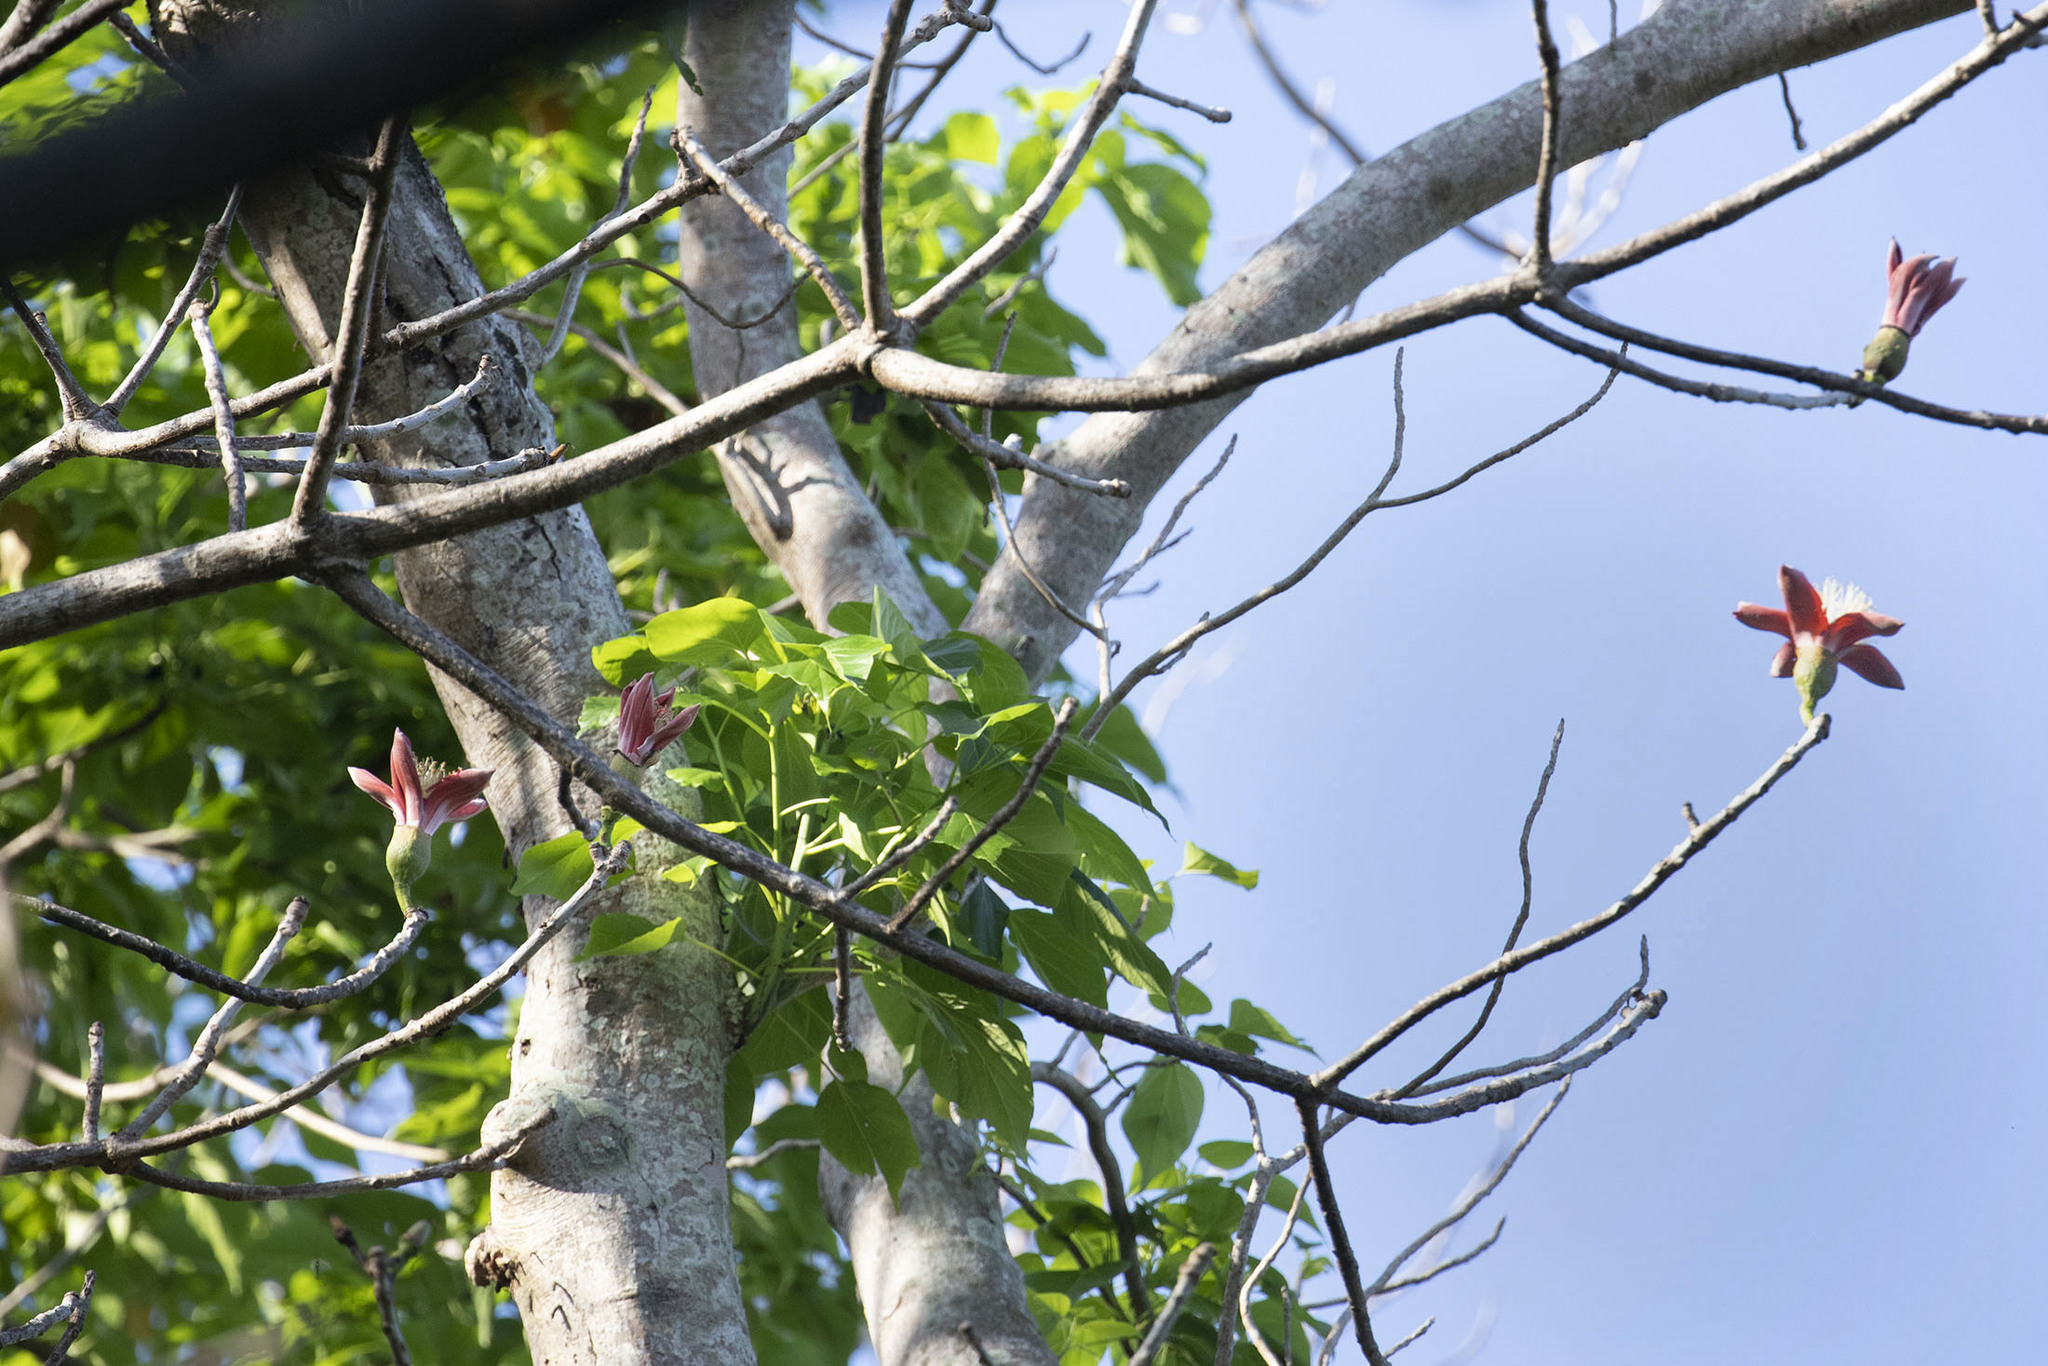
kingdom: Plantae
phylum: Tracheophyta
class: Magnoliopsida
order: Malvales
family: Malvaceae
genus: Bombax
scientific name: Bombax insigne
